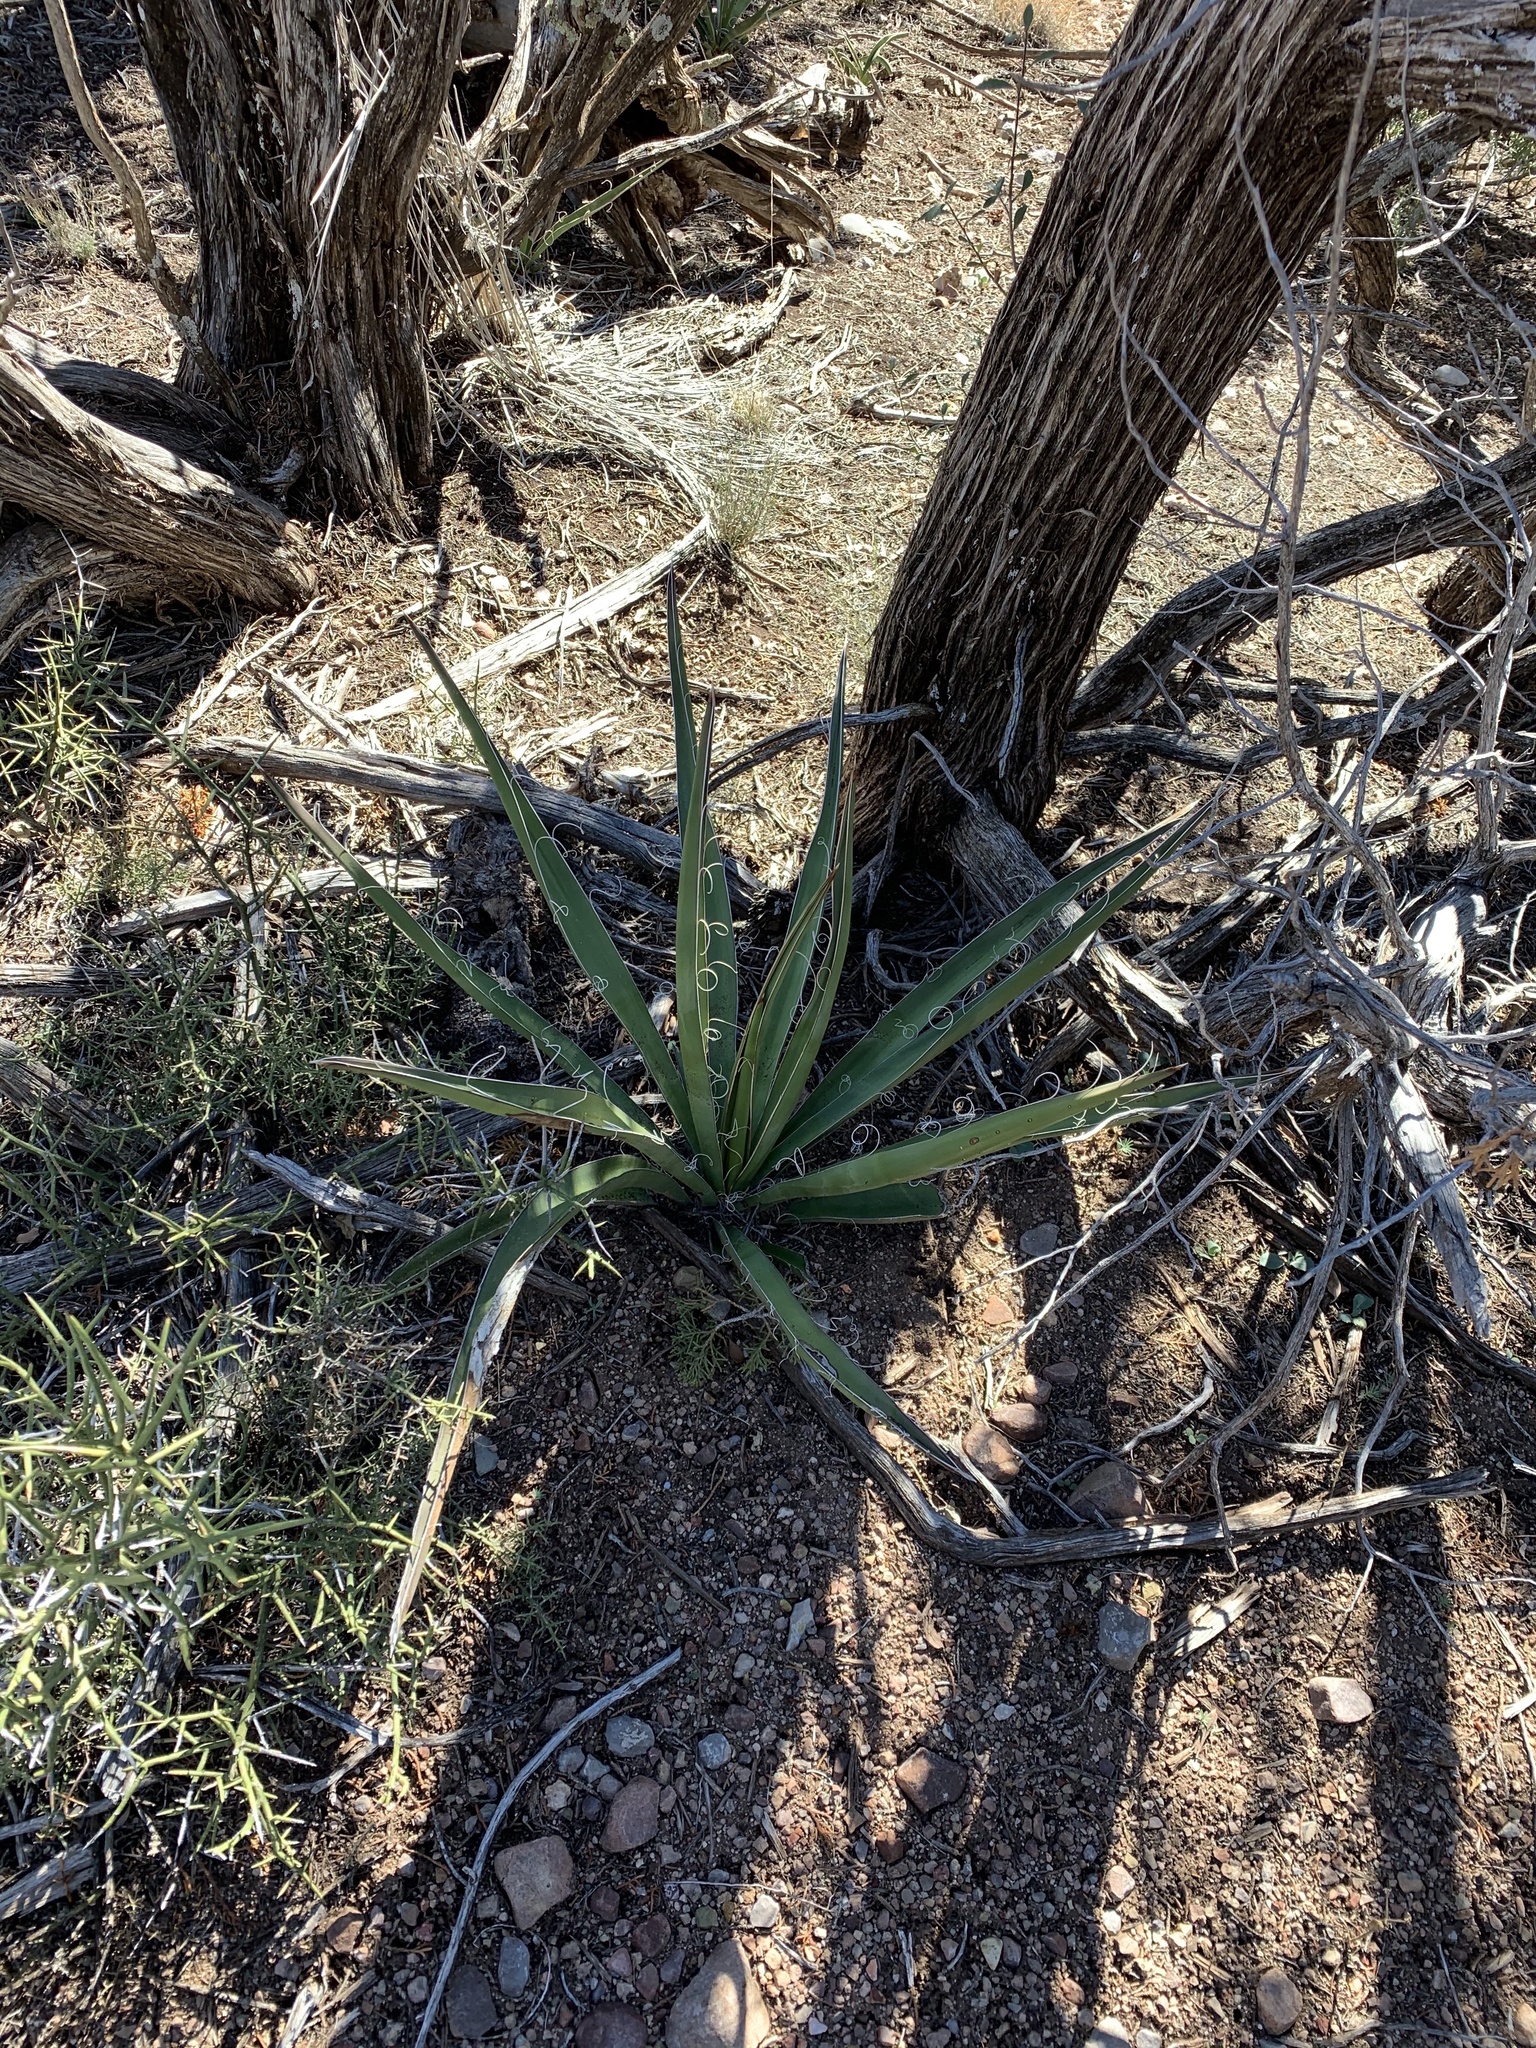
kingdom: Plantae
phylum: Tracheophyta
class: Liliopsida
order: Asparagales
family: Asparagaceae
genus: Yucca
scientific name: Yucca baccata
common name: Banana yucca
